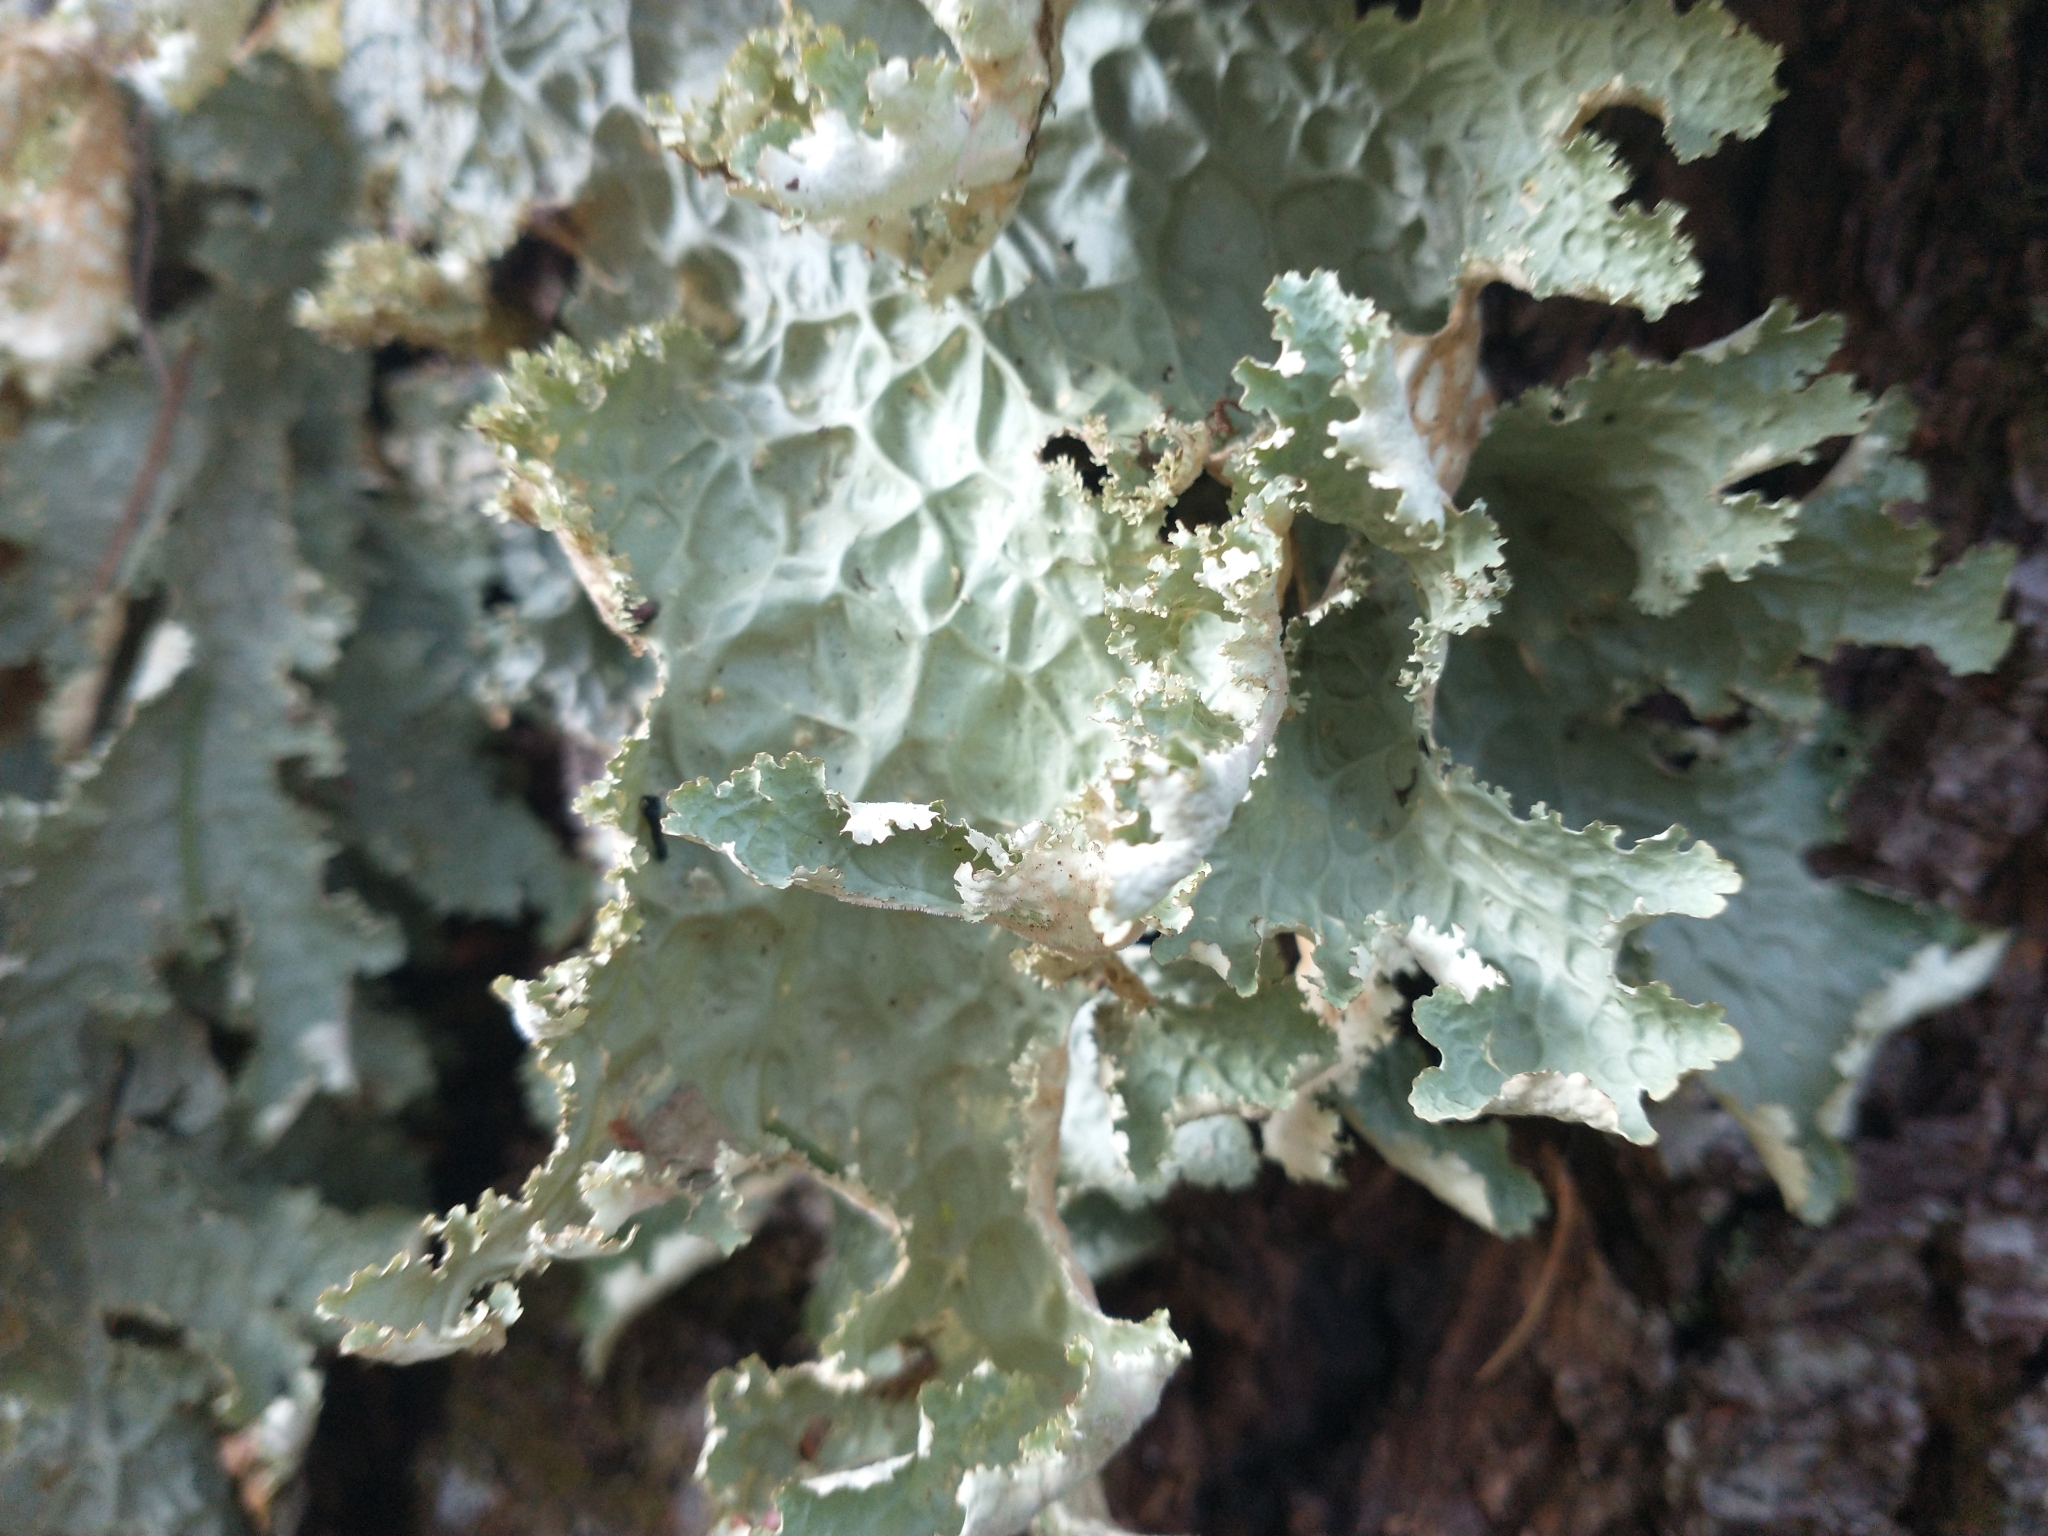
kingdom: Fungi
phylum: Ascomycota
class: Lecanoromycetes
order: Peltigerales
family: Lobariaceae
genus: Lobaria
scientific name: Lobaria oregana
